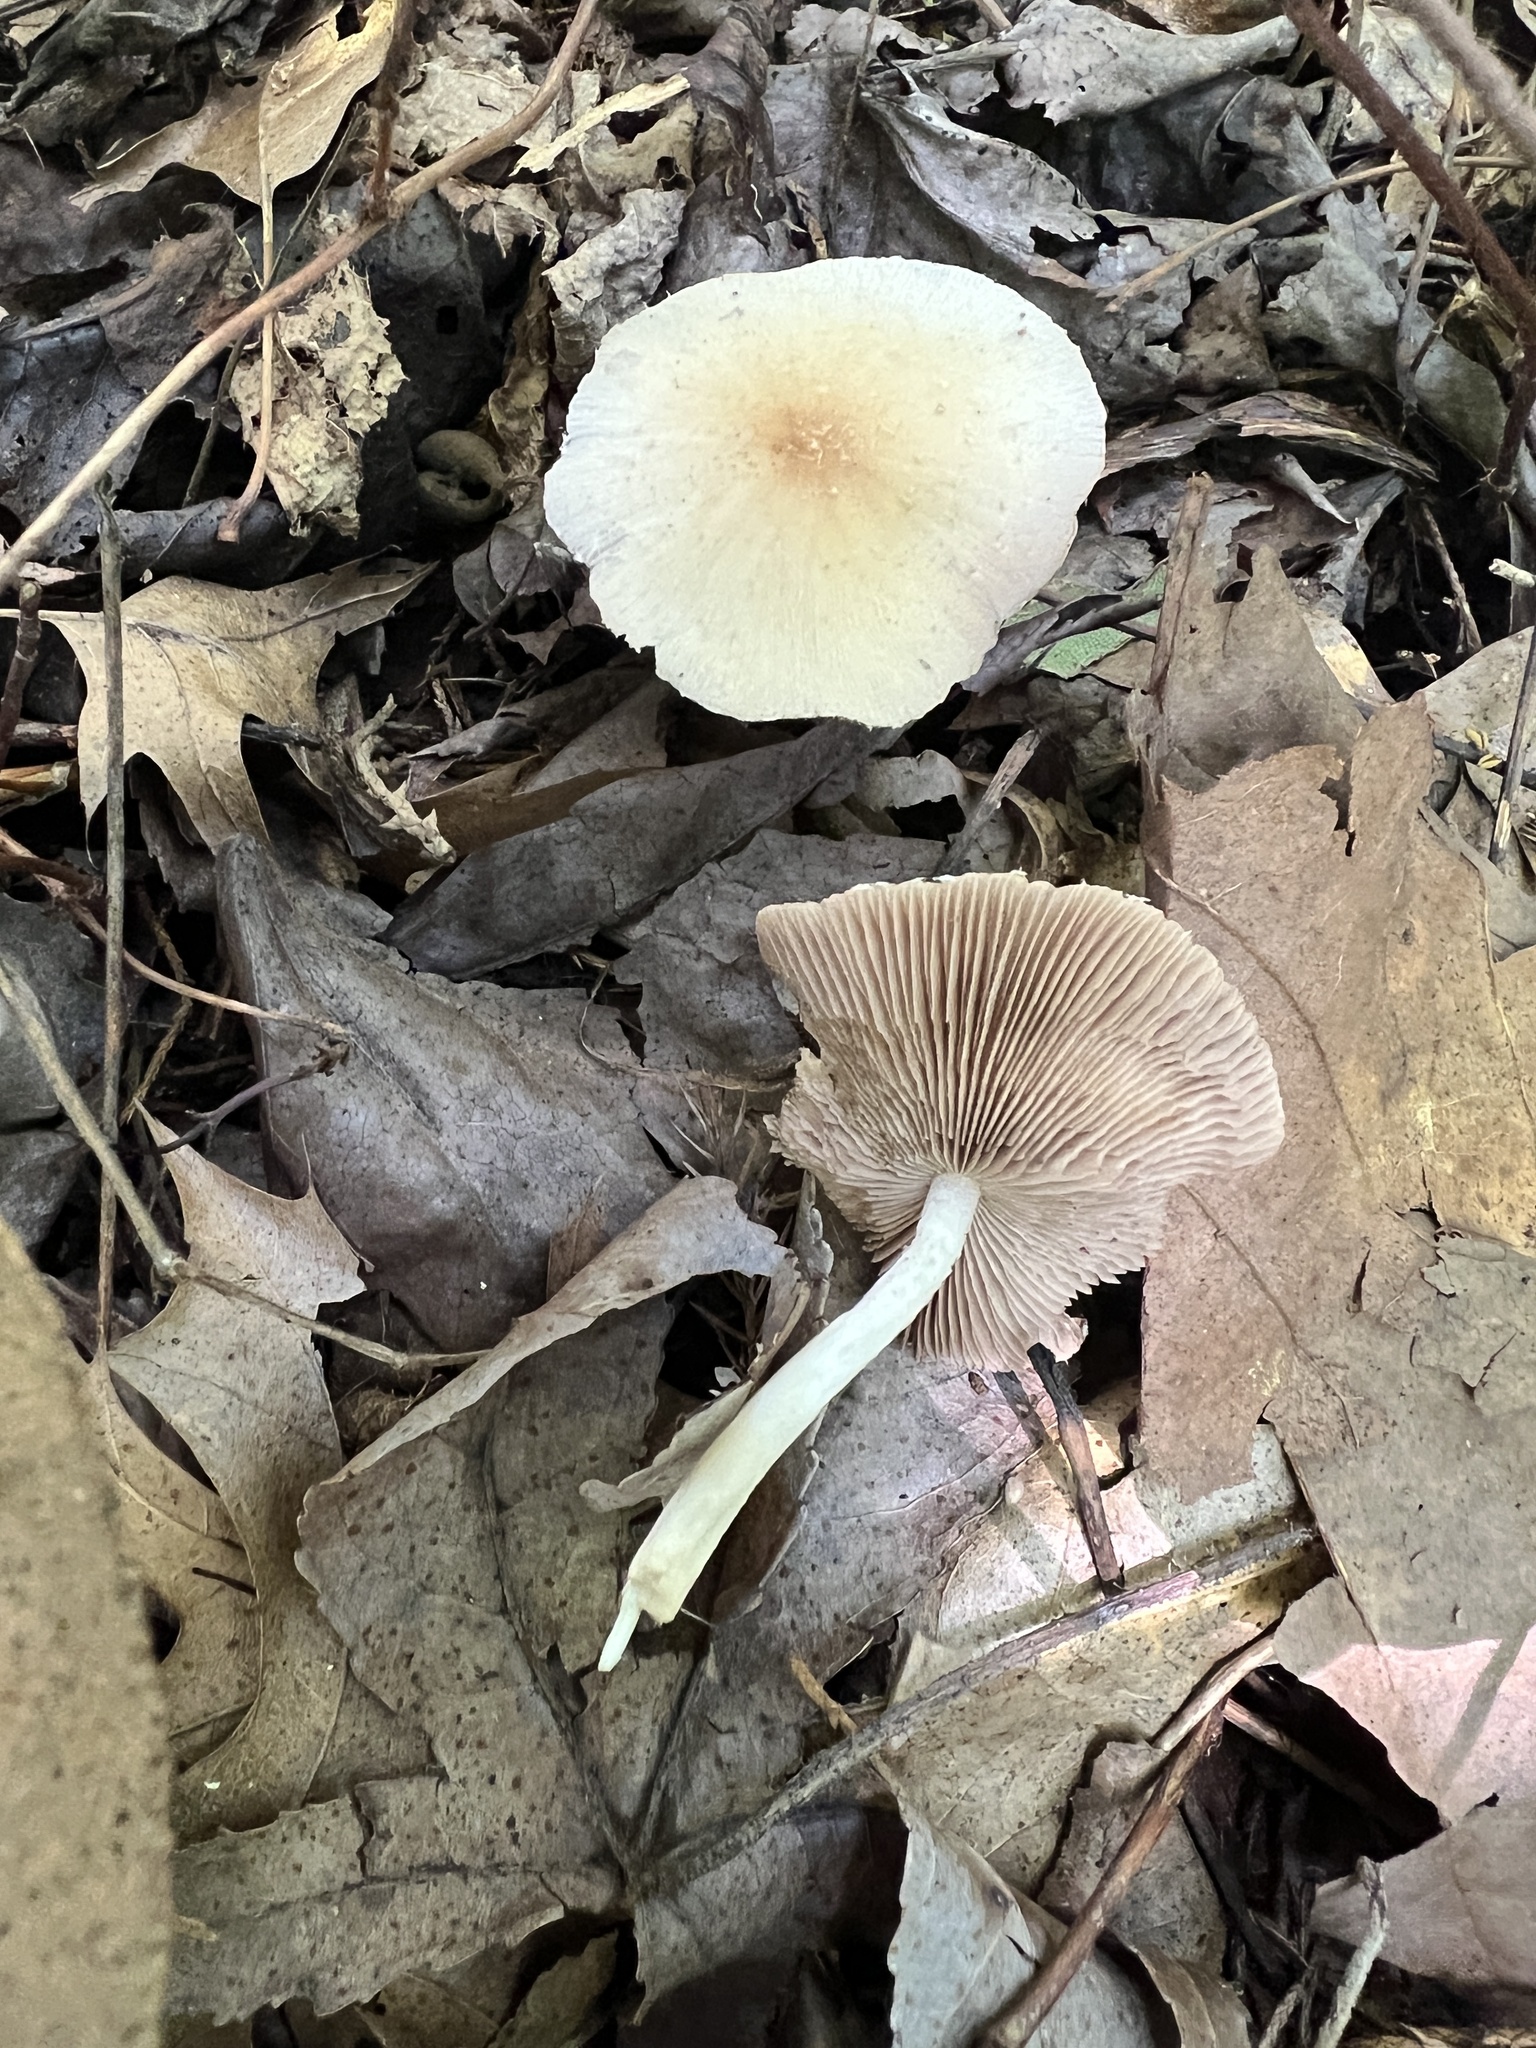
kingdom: Fungi
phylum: Basidiomycota
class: Agaricomycetes
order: Agaricales
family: Psathyrellaceae
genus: Candolleomyces
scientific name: Candolleomyces candolleanus
